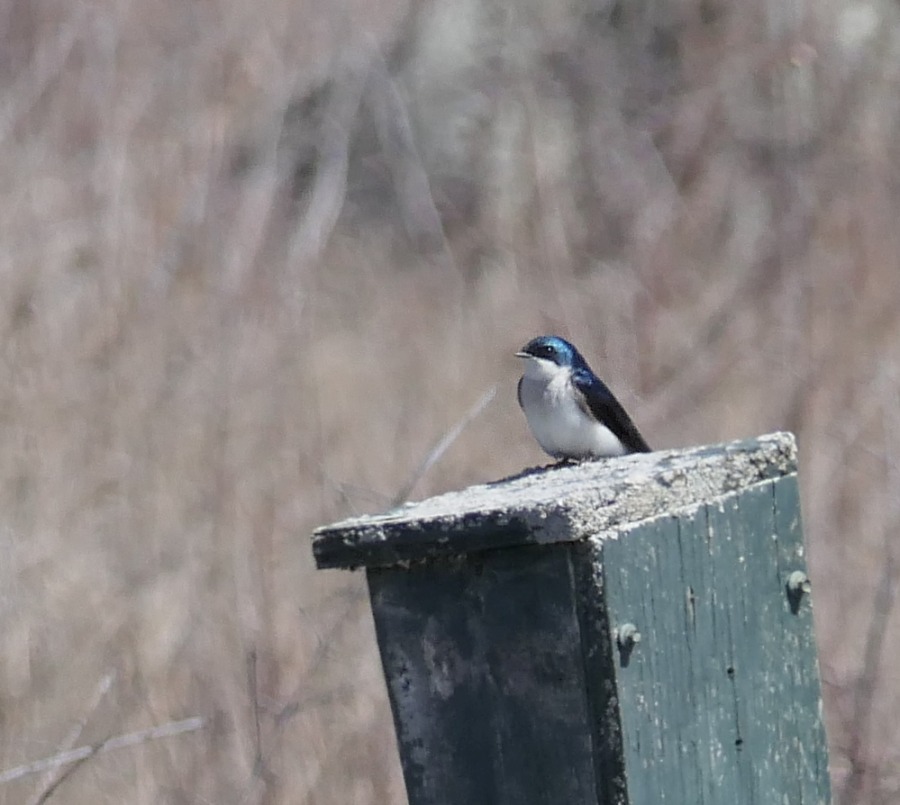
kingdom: Animalia
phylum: Chordata
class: Aves
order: Passeriformes
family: Hirundinidae
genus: Tachycineta
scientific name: Tachycineta bicolor
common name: Tree swallow
